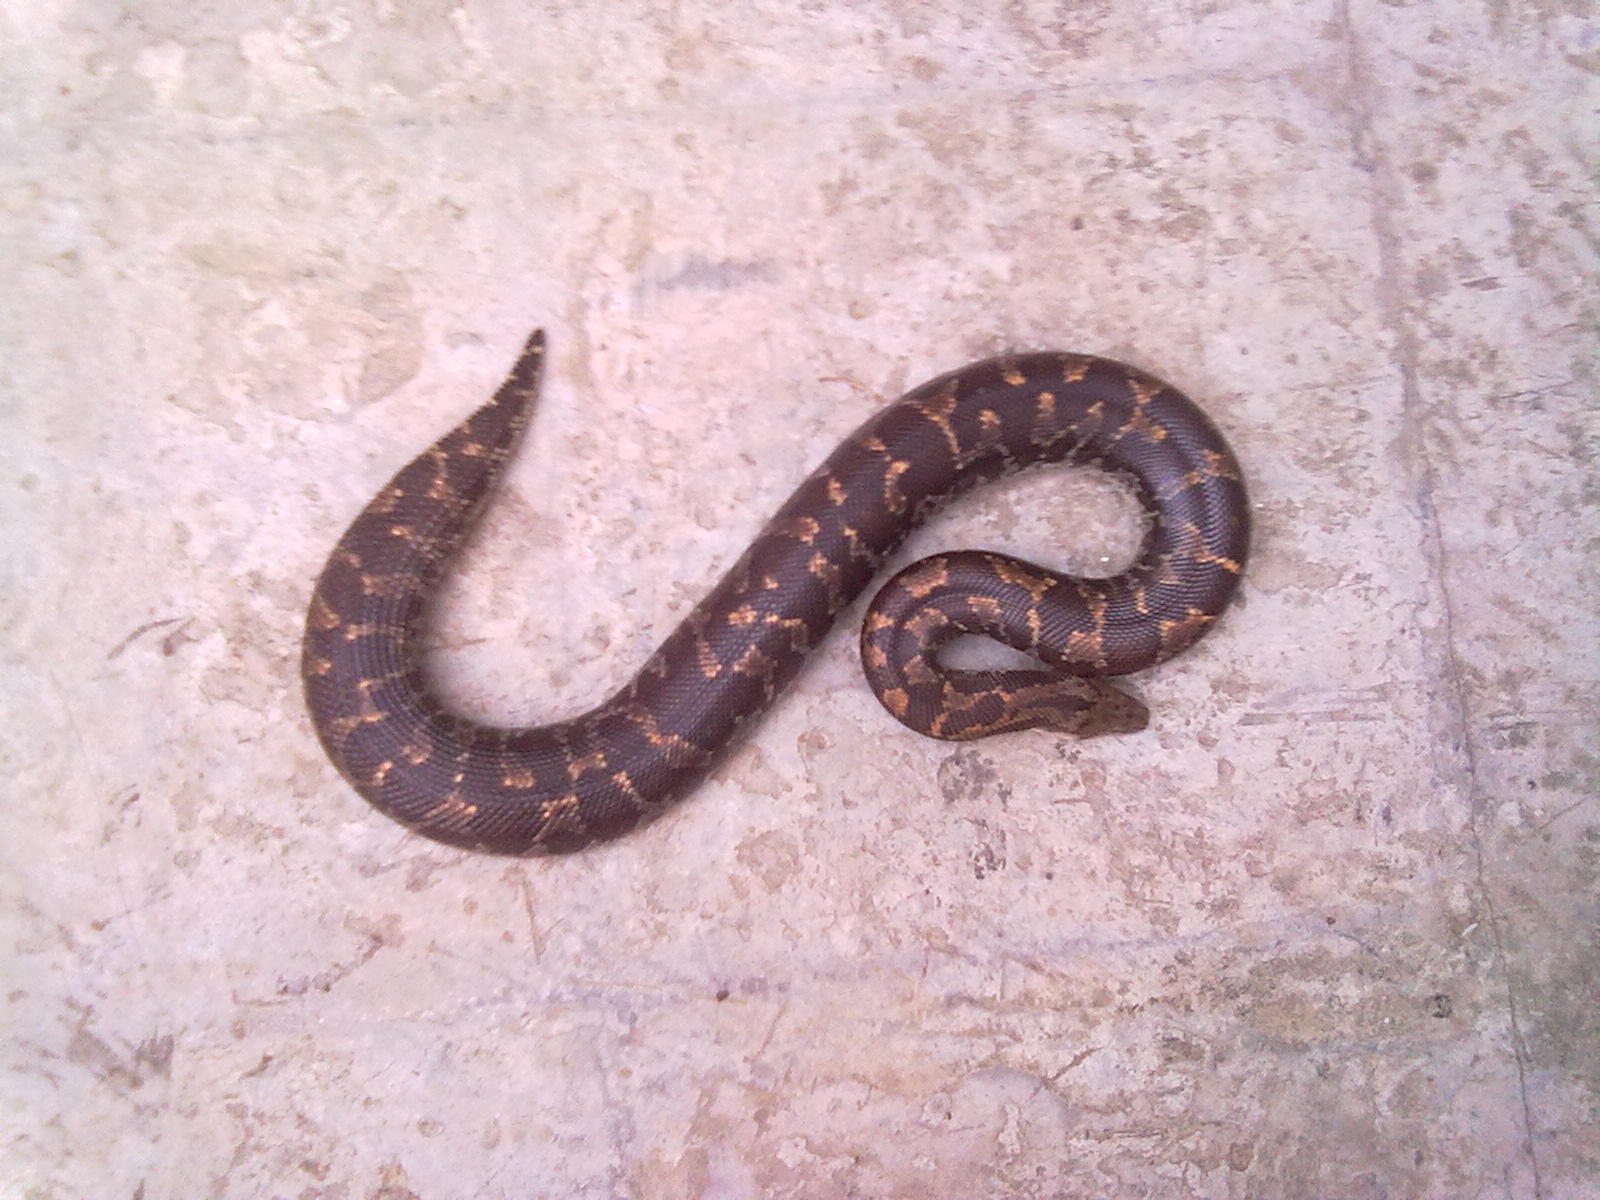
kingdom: Animalia
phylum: Chordata
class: Squamata
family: Boidae
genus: Eryx
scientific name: Eryx conicus
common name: Rough-tailed sand boa
